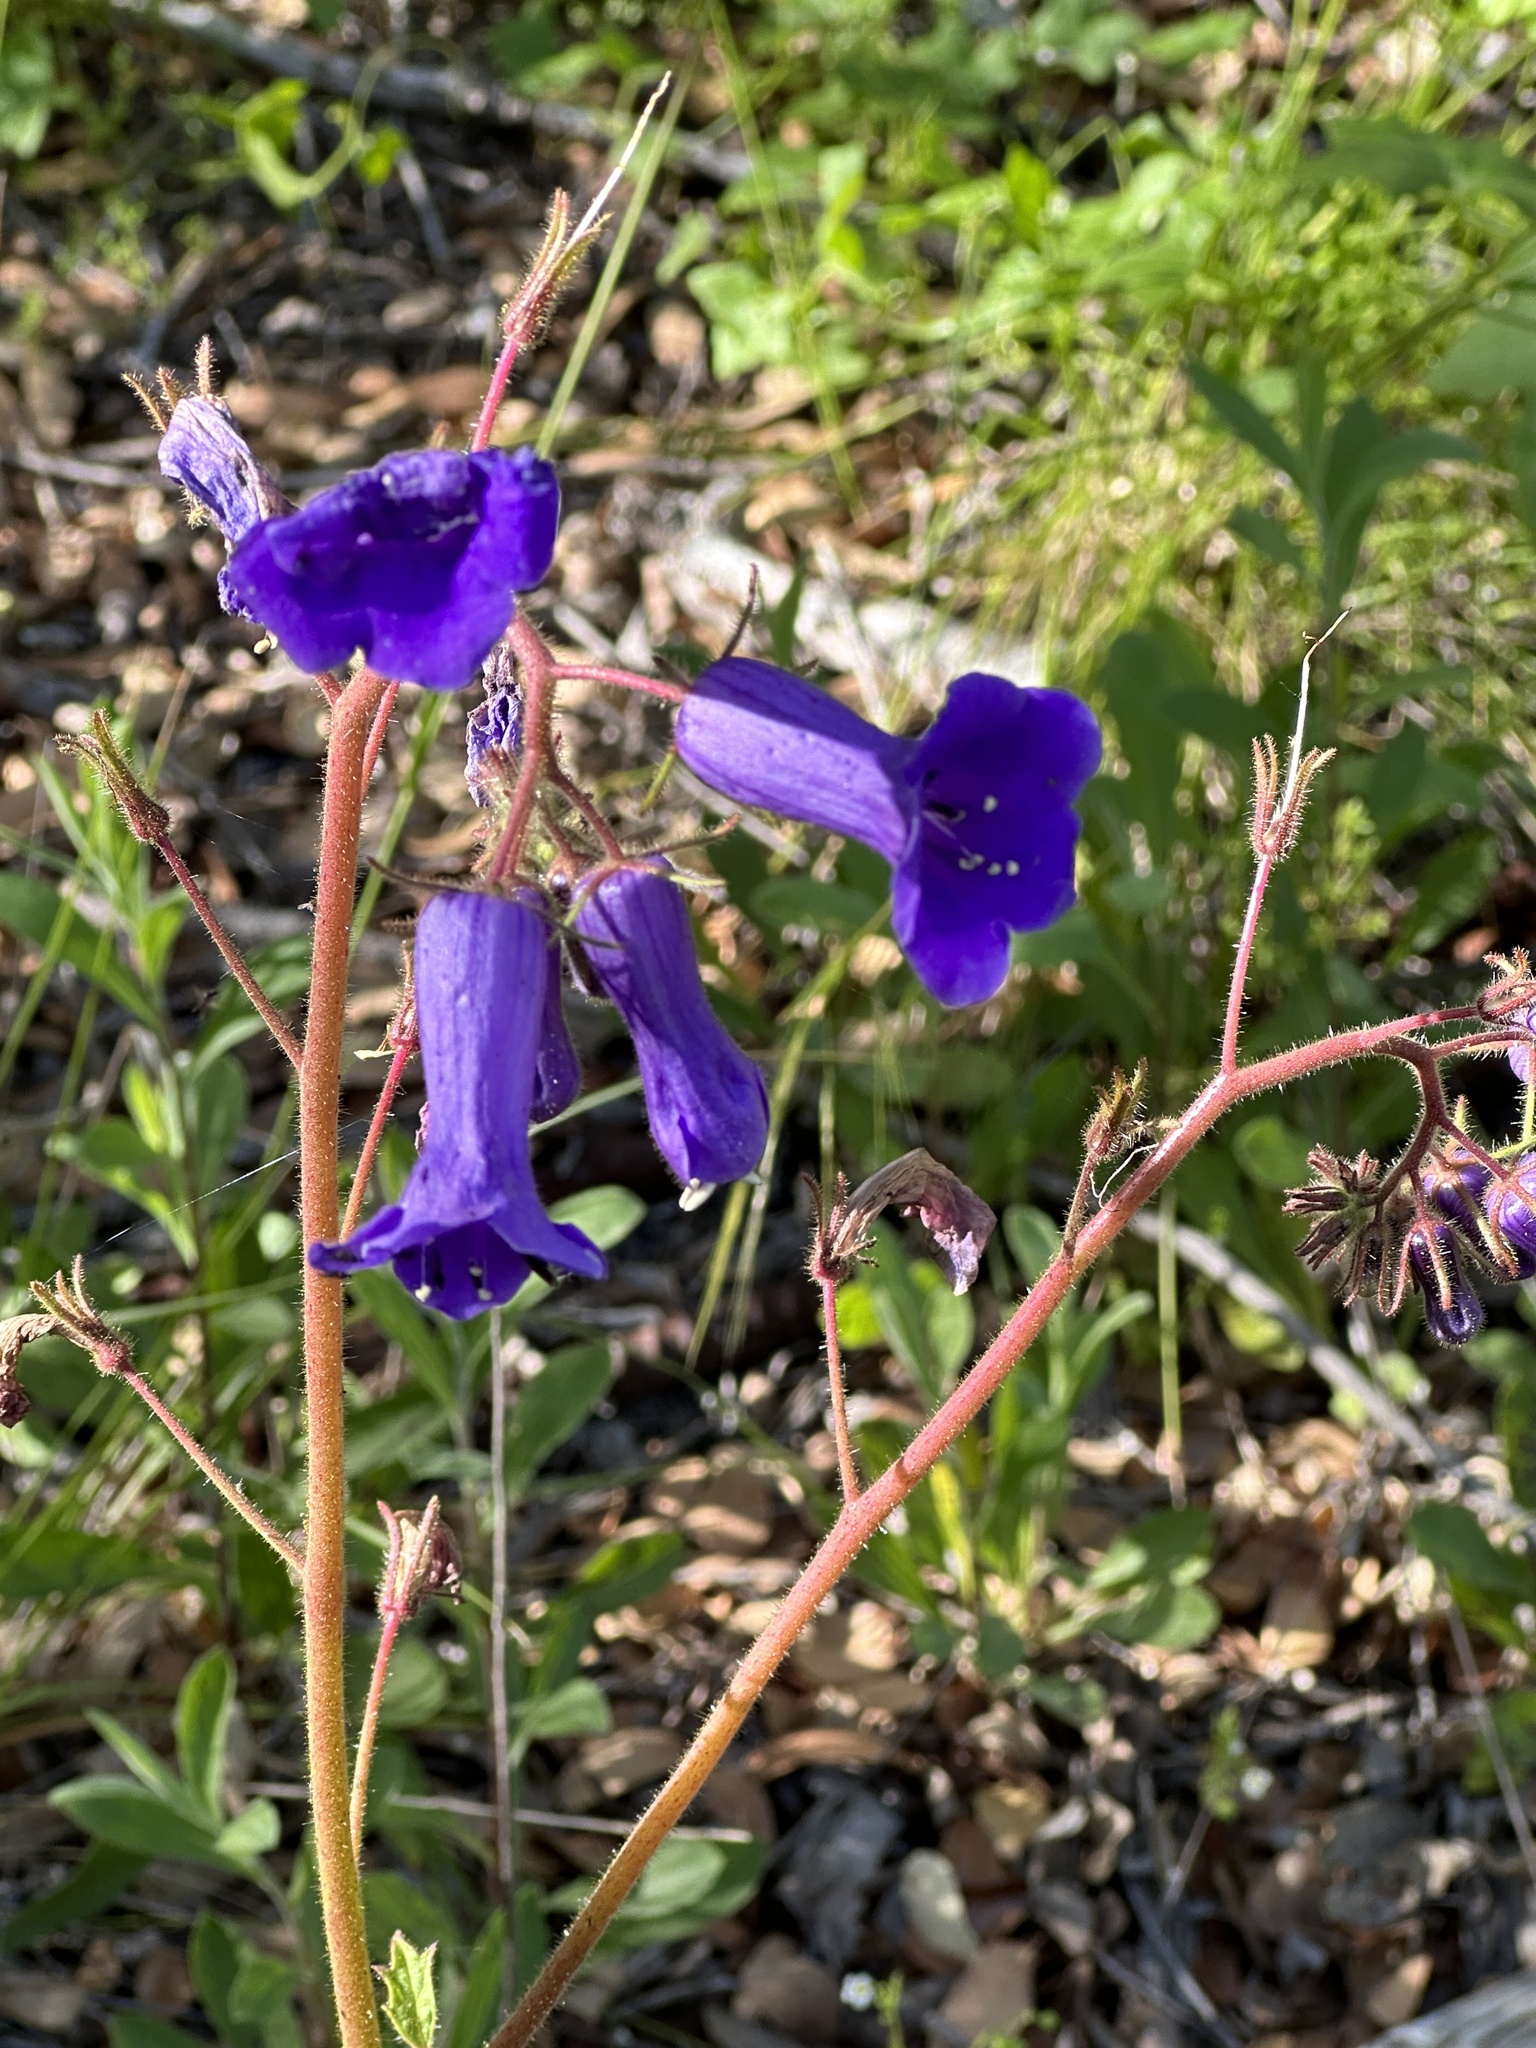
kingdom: Plantae
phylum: Tracheophyta
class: Magnoliopsida
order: Boraginales
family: Hydrophyllaceae
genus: Phacelia
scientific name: Phacelia minor
